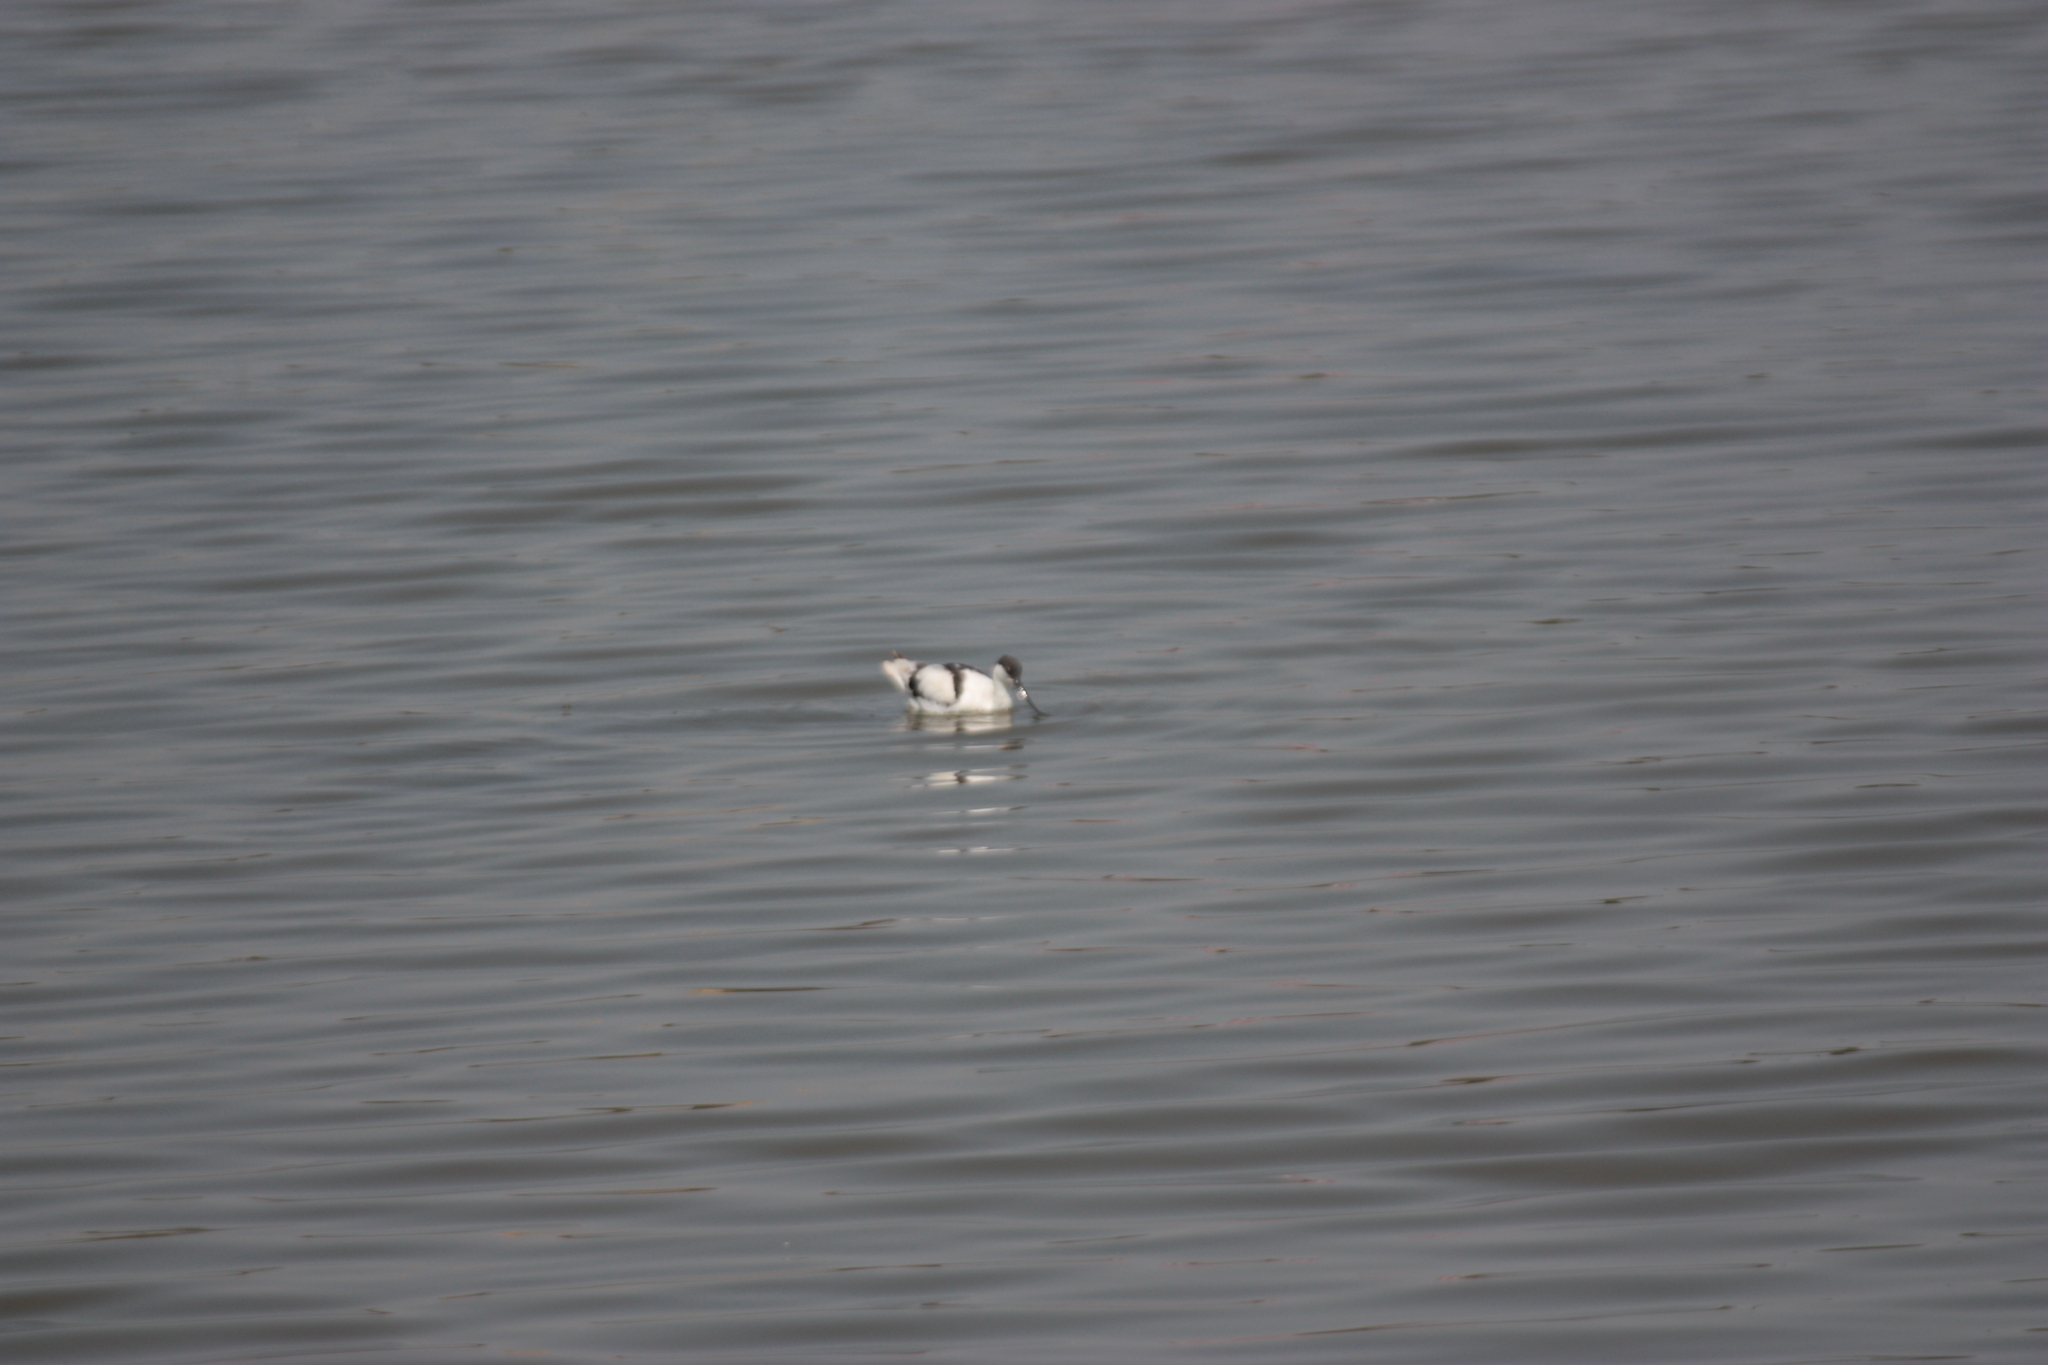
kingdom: Animalia
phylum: Chordata
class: Aves
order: Charadriiformes
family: Recurvirostridae
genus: Recurvirostra
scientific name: Recurvirostra avosetta
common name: Pied avocet
